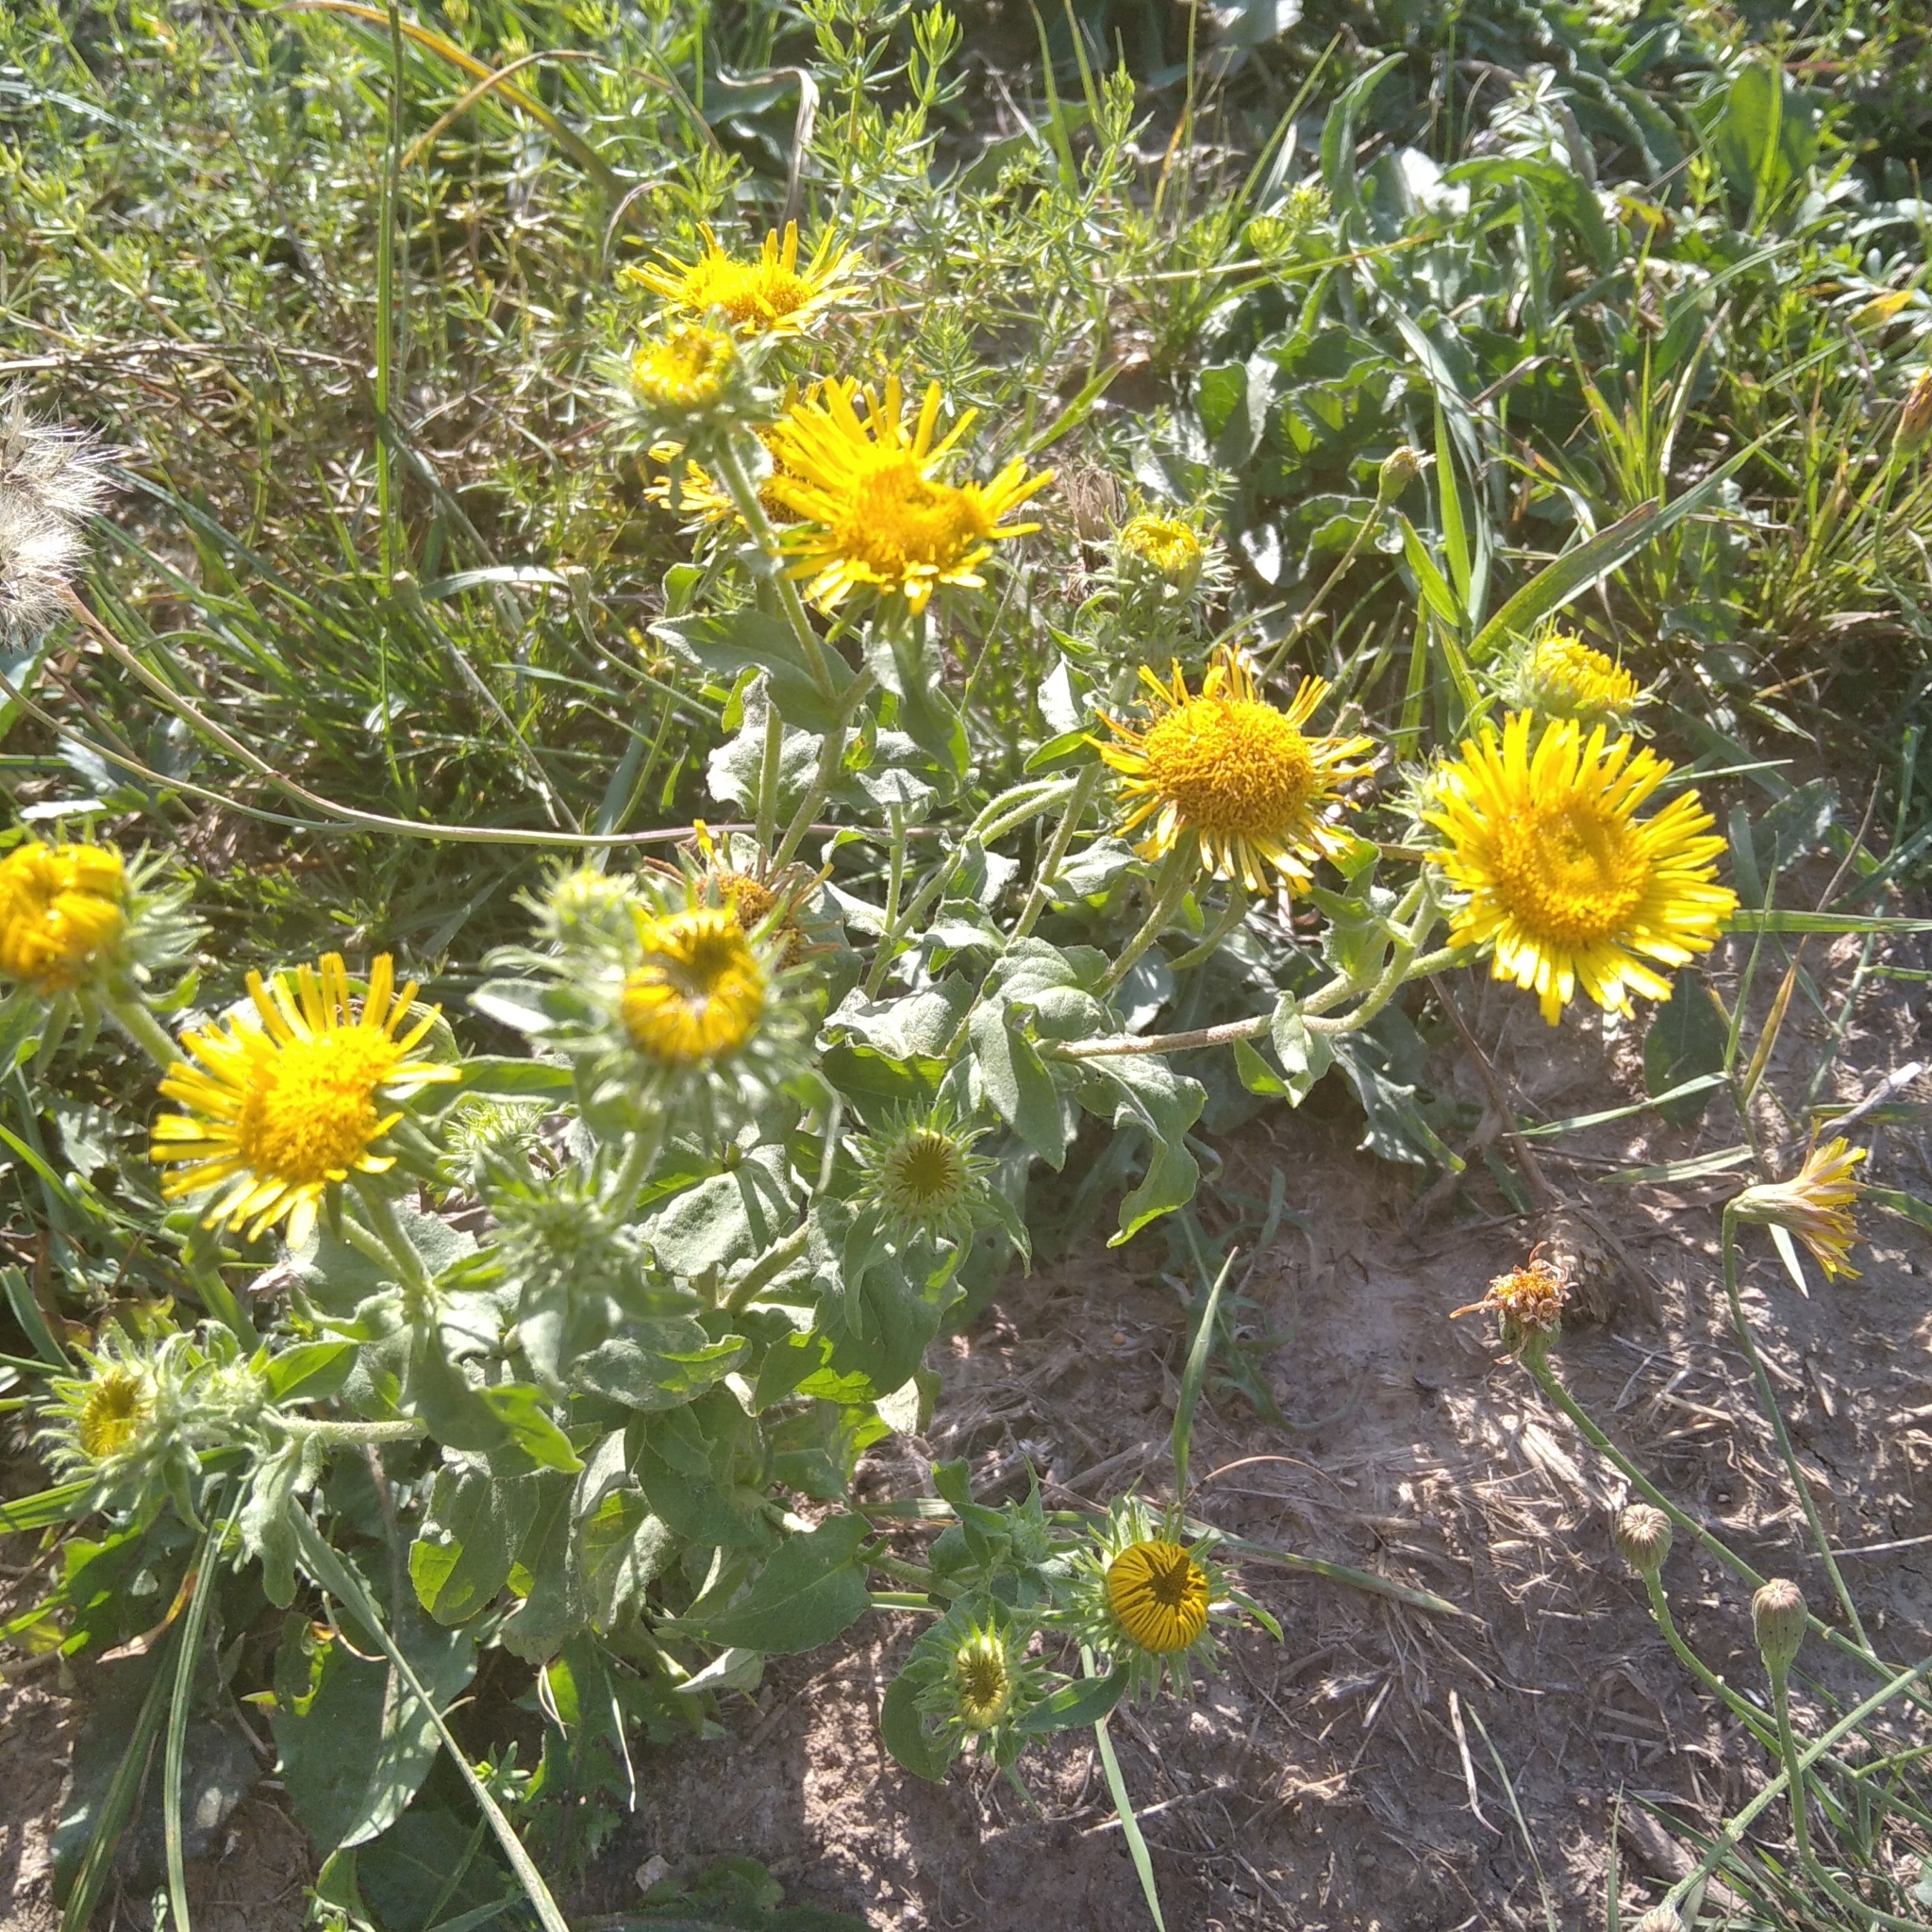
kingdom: Plantae
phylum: Tracheophyta
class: Magnoliopsida
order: Asterales
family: Asteraceae
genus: Pentanema
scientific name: Pentanema britannicum
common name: British elecampane
